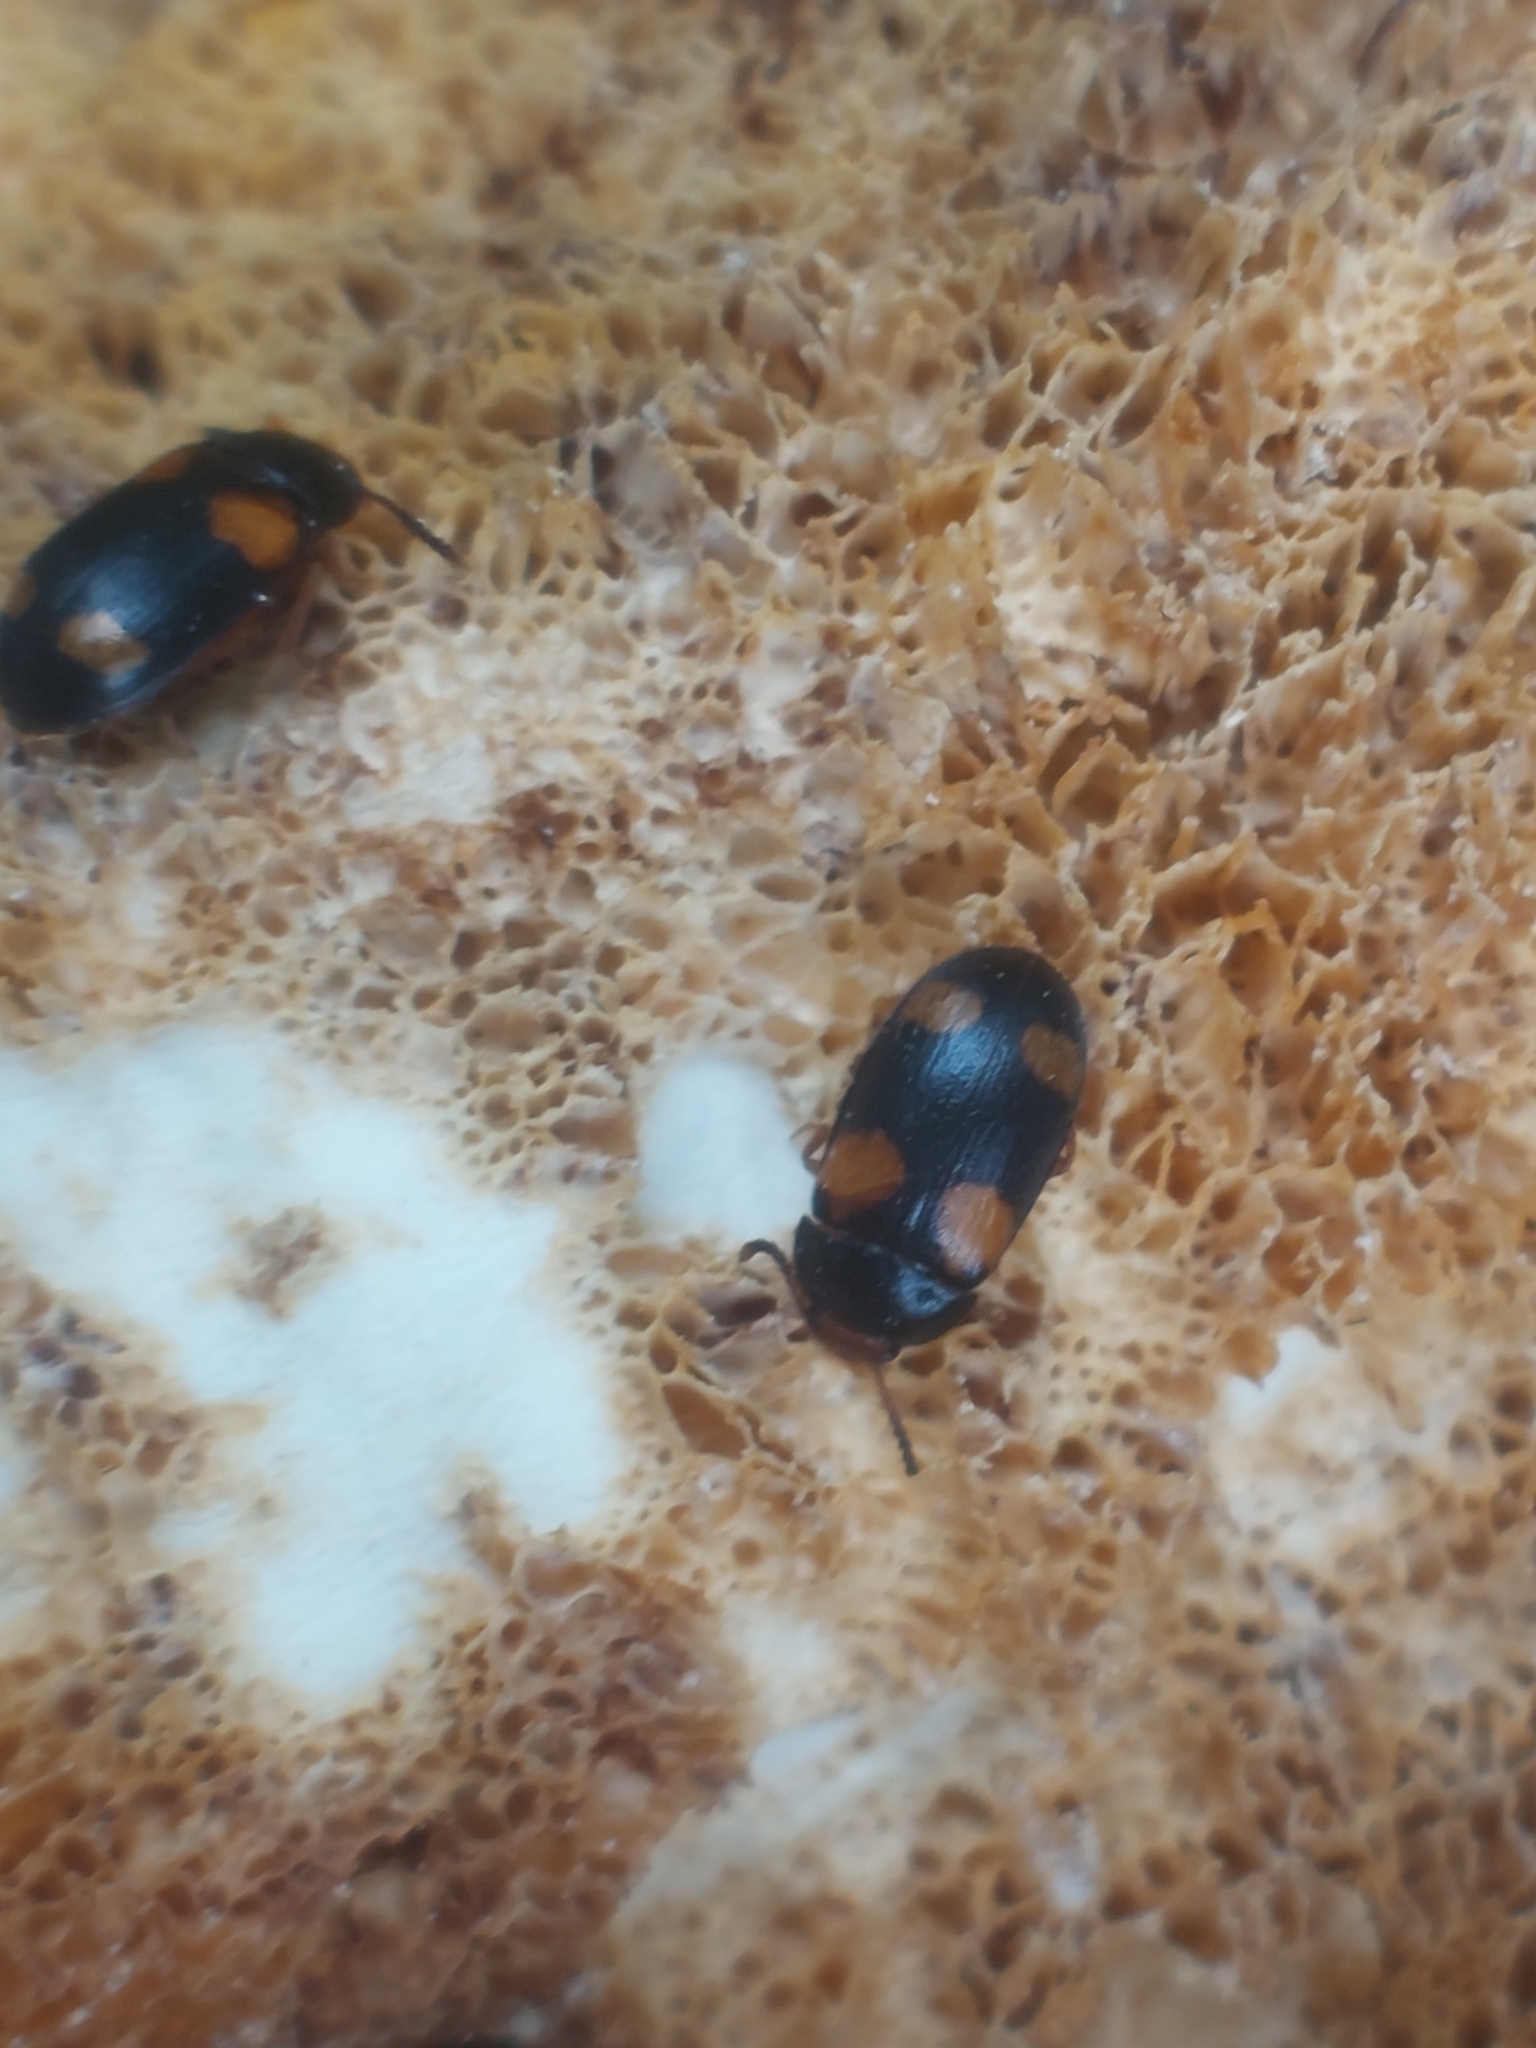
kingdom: Animalia
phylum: Arthropoda
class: Insecta
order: Coleoptera
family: Mycetophagidae
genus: Mycetophagus
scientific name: Mycetophagus quadripustulatus
